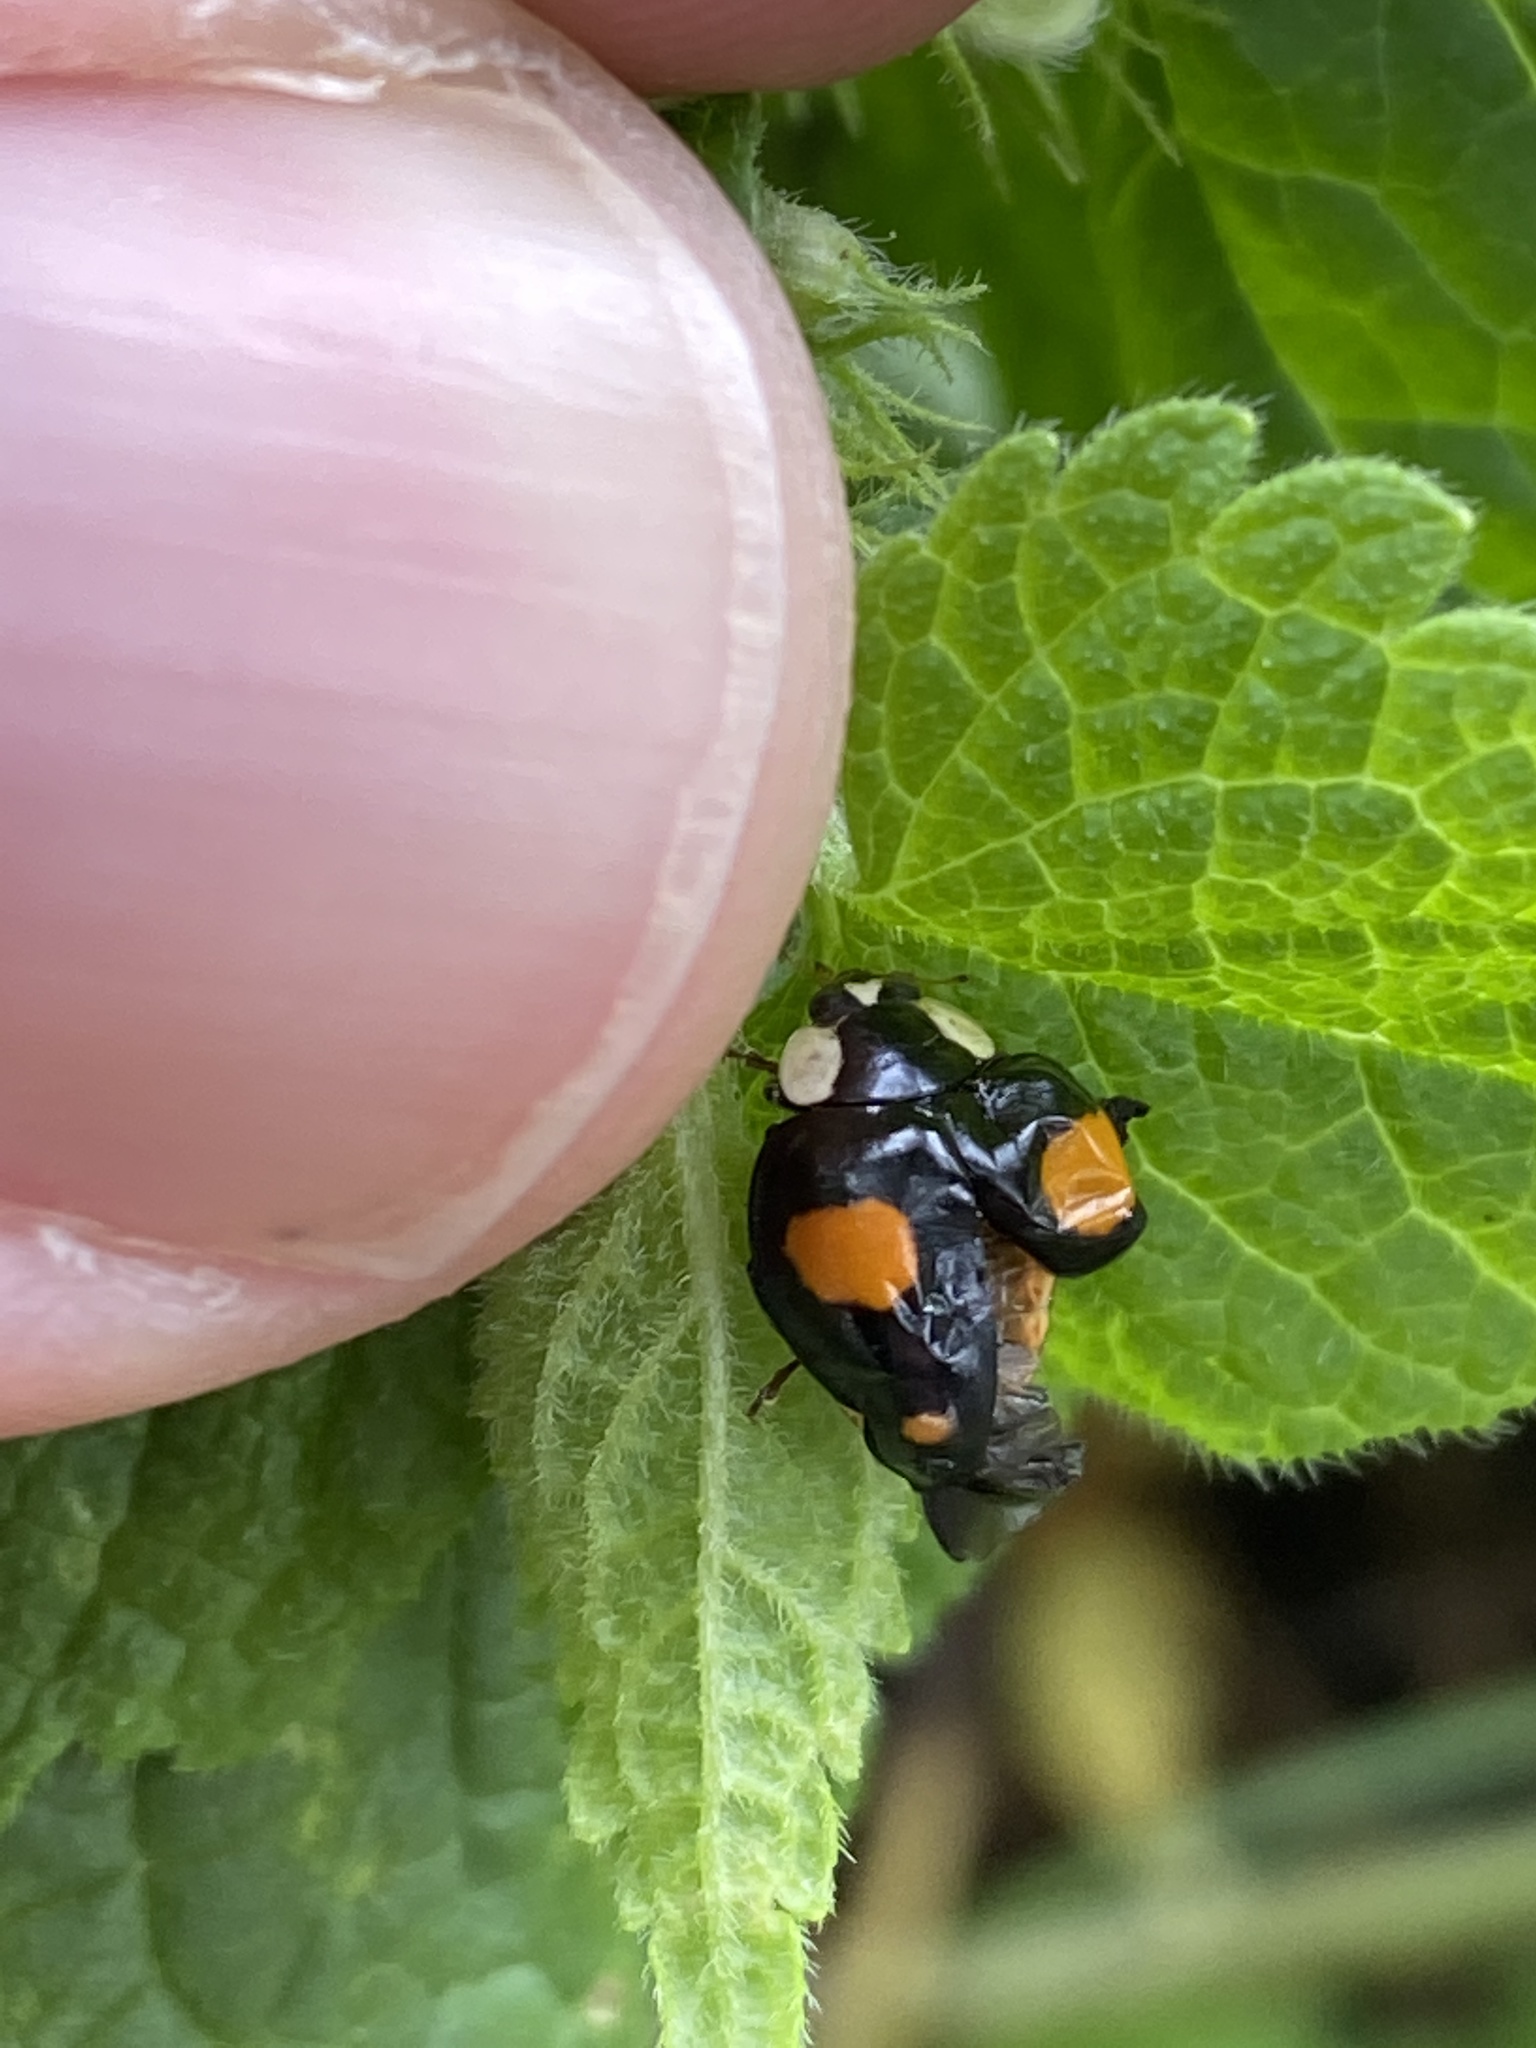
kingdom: Animalia
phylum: Arthropoda
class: Insecta
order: Coleoptera
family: Coccinellidae
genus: Harmonia
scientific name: Harmonia axyridis
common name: Harlequin ladybird
